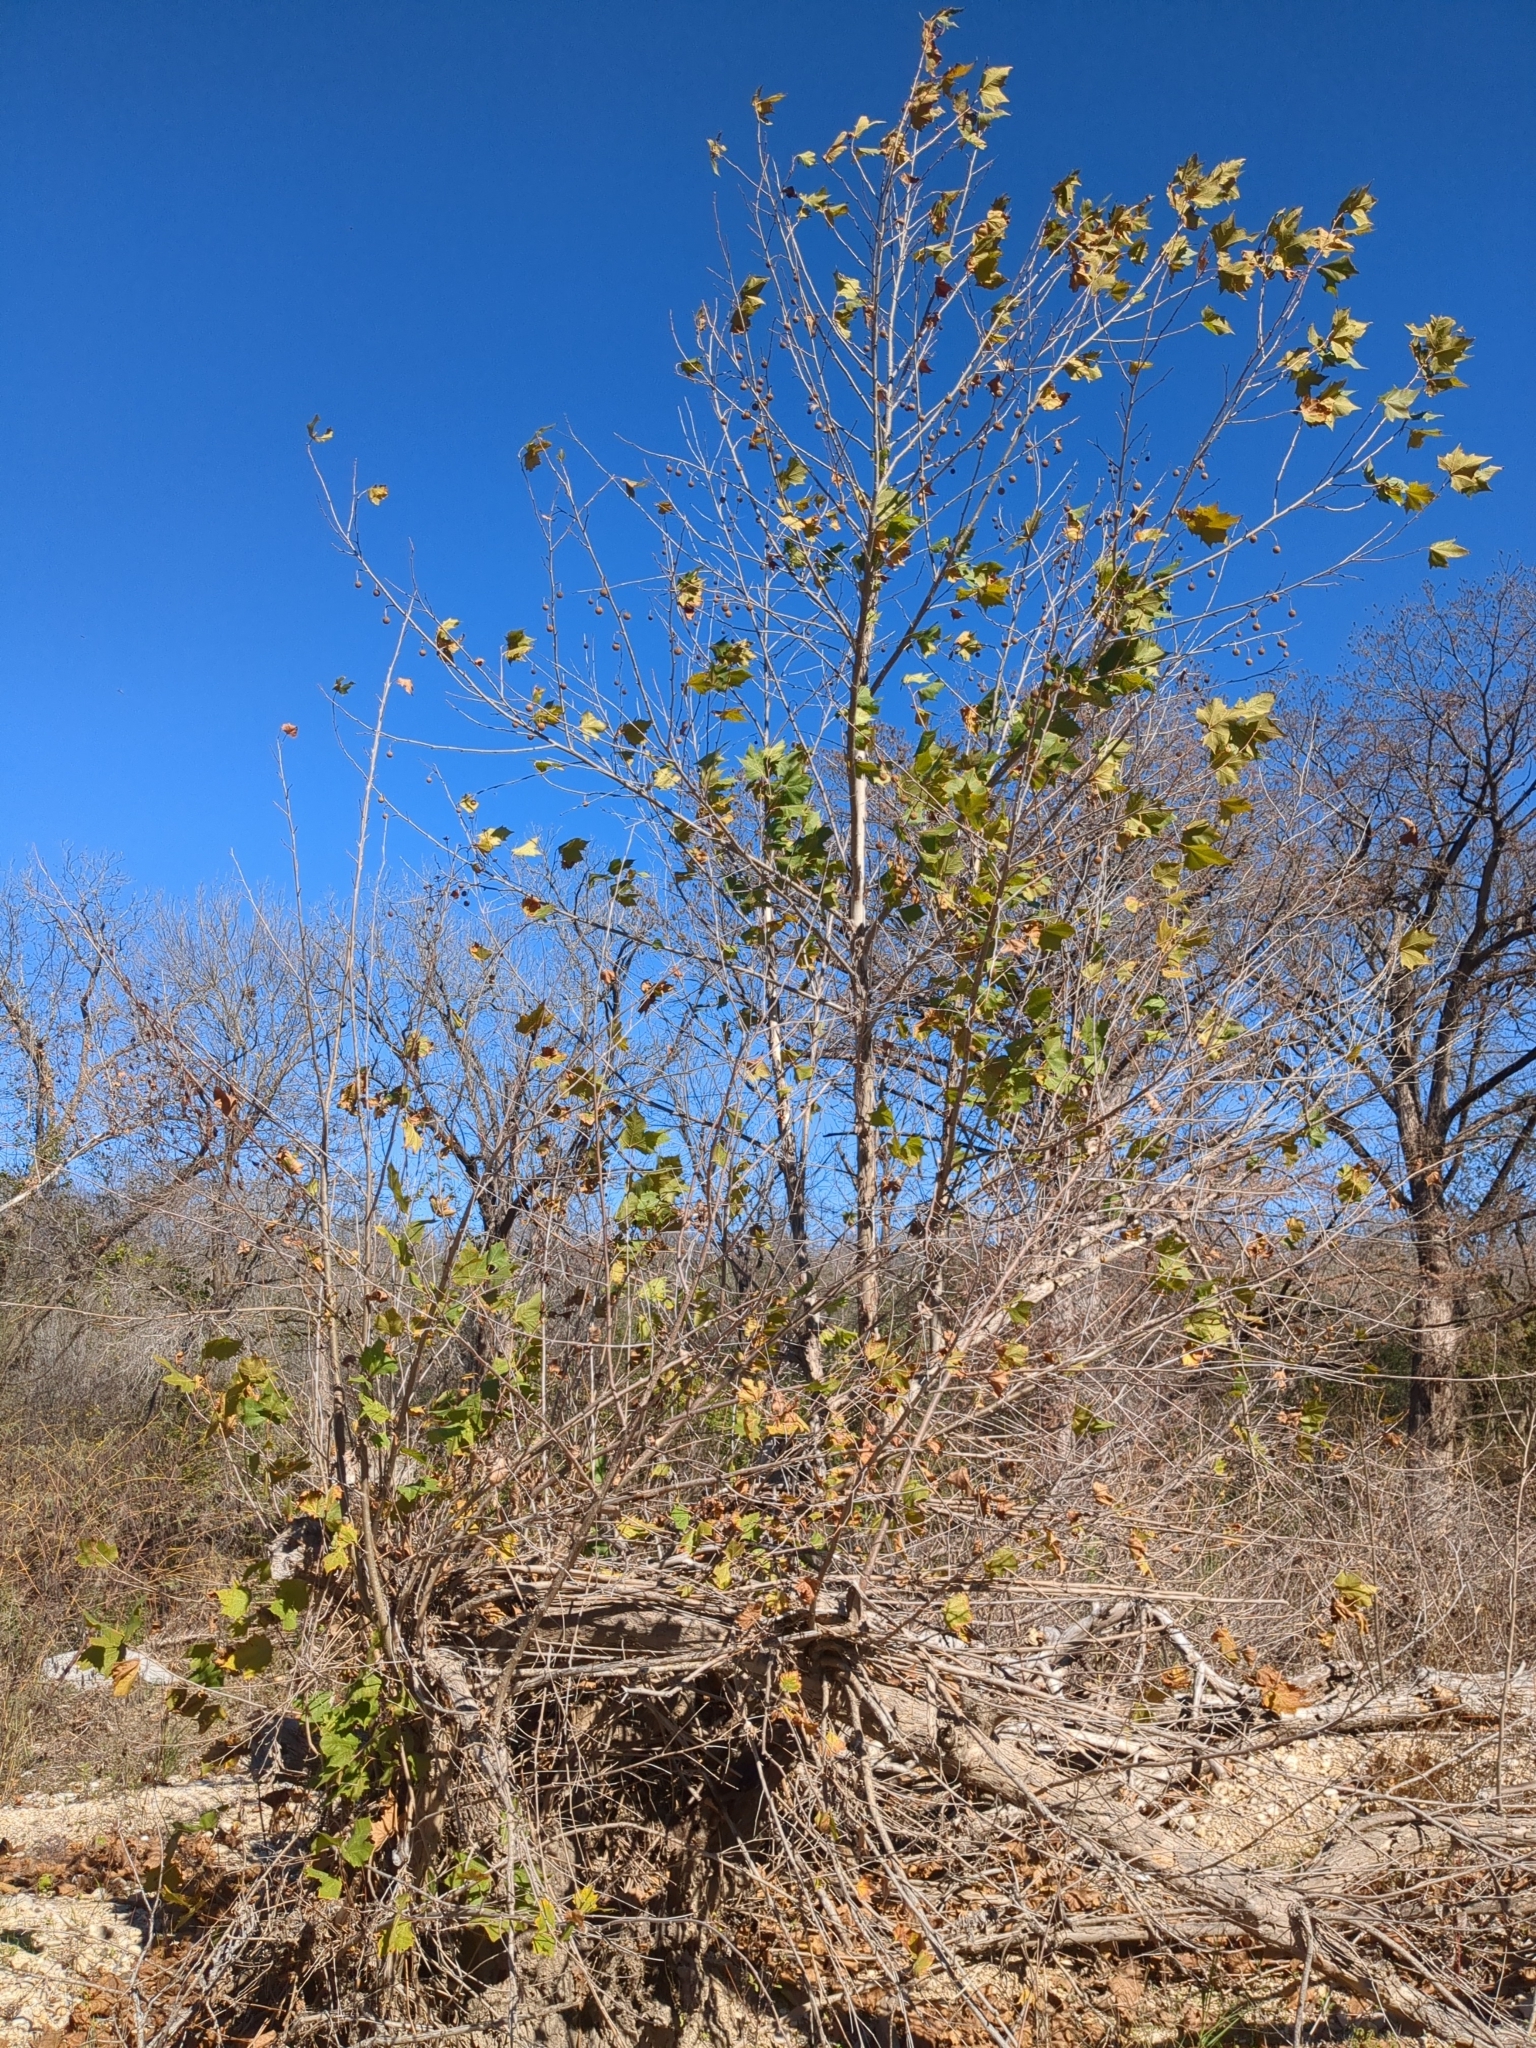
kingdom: Plantae
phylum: Tracheophyta
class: Magnoliopsida
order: Proteales
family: Platanaceae
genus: Platanus
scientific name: Platanus occidentalis
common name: American sycamore
